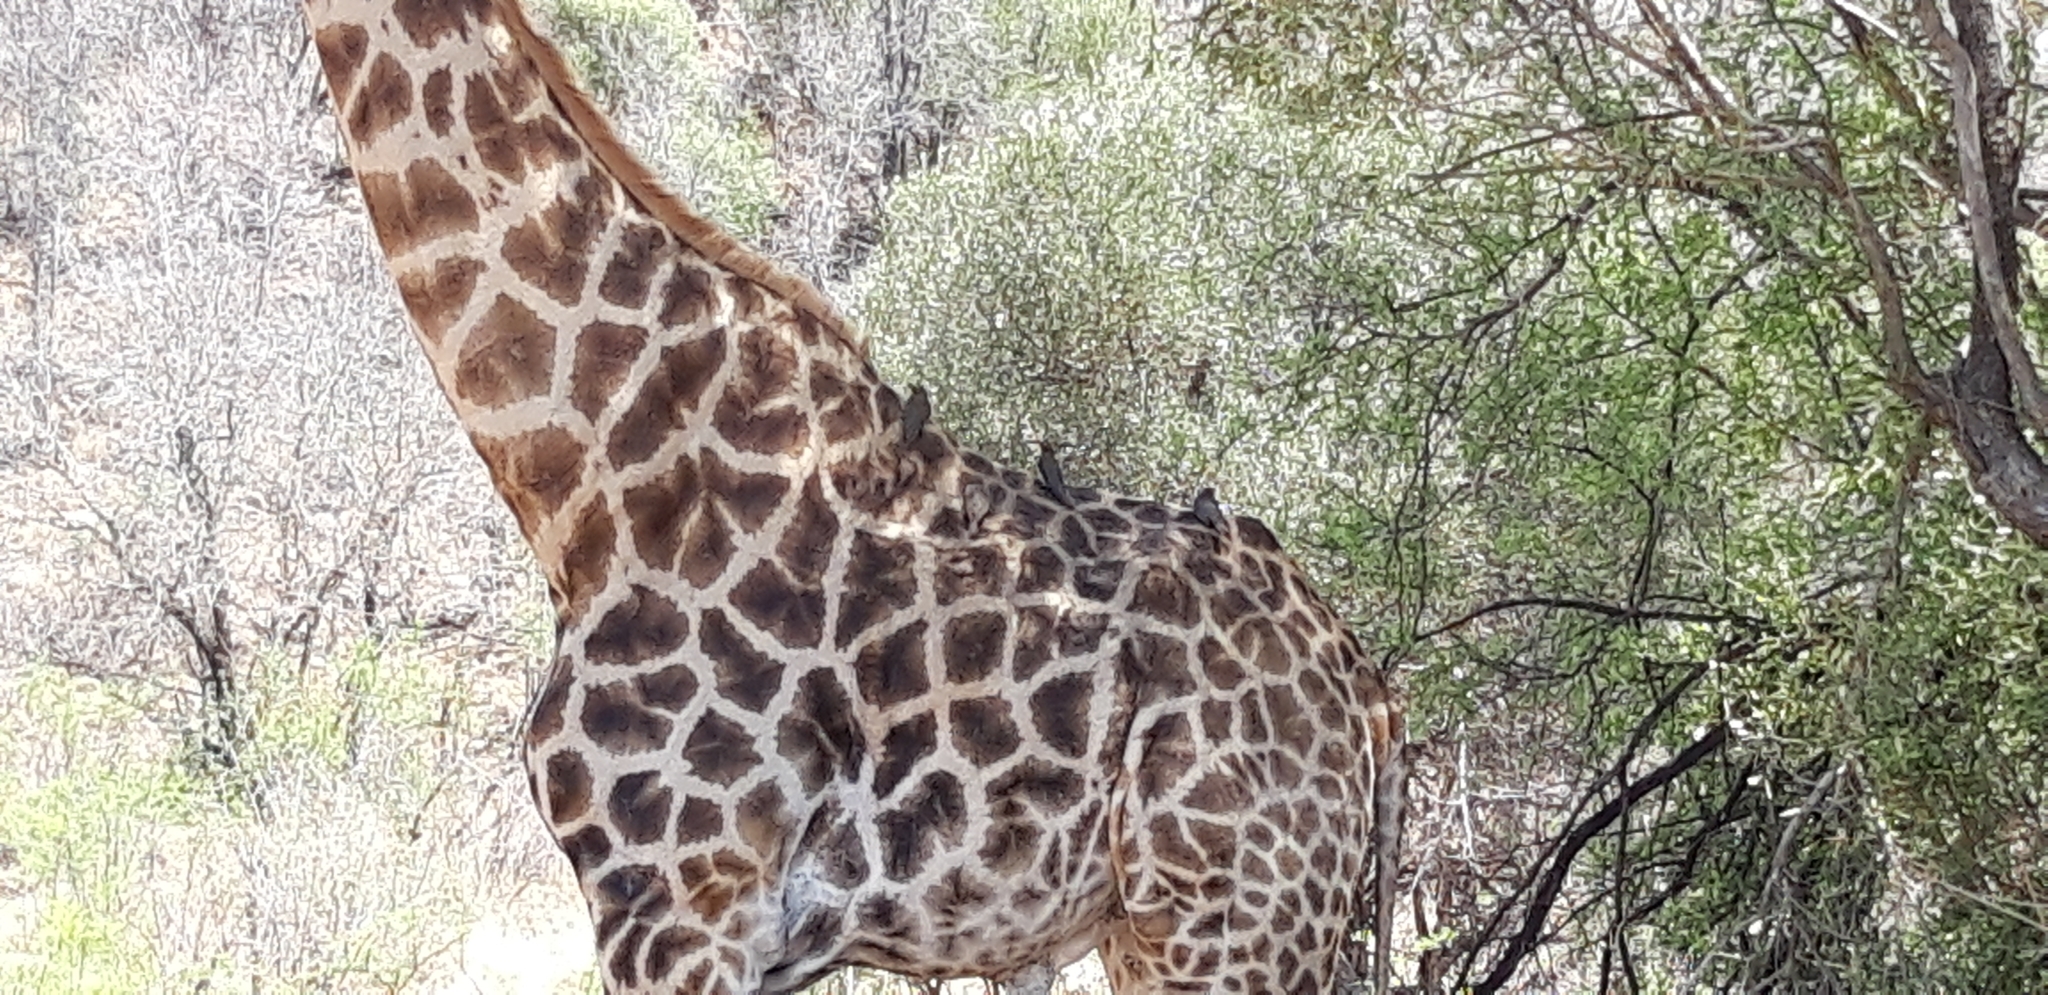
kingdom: Animalia
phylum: Chordata
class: Aves
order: Passeriformes
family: Buphagidae
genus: Buphagus
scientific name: Buphagus erythrorhynchus
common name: Red-billed oxpecker
